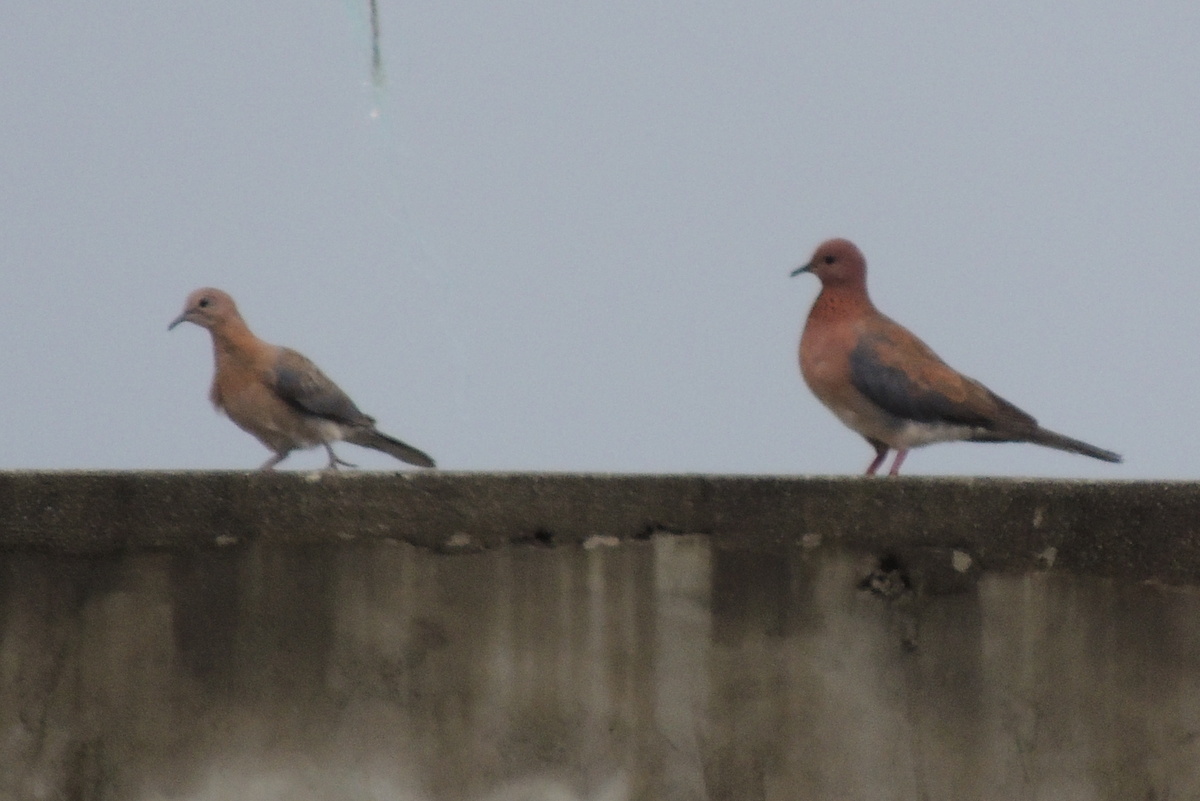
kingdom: Animalia
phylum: Chordata
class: Aves
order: Columbiformes
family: Columbidae
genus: Spilopelia
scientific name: Spilopelia senegalensis
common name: Laughing dove
